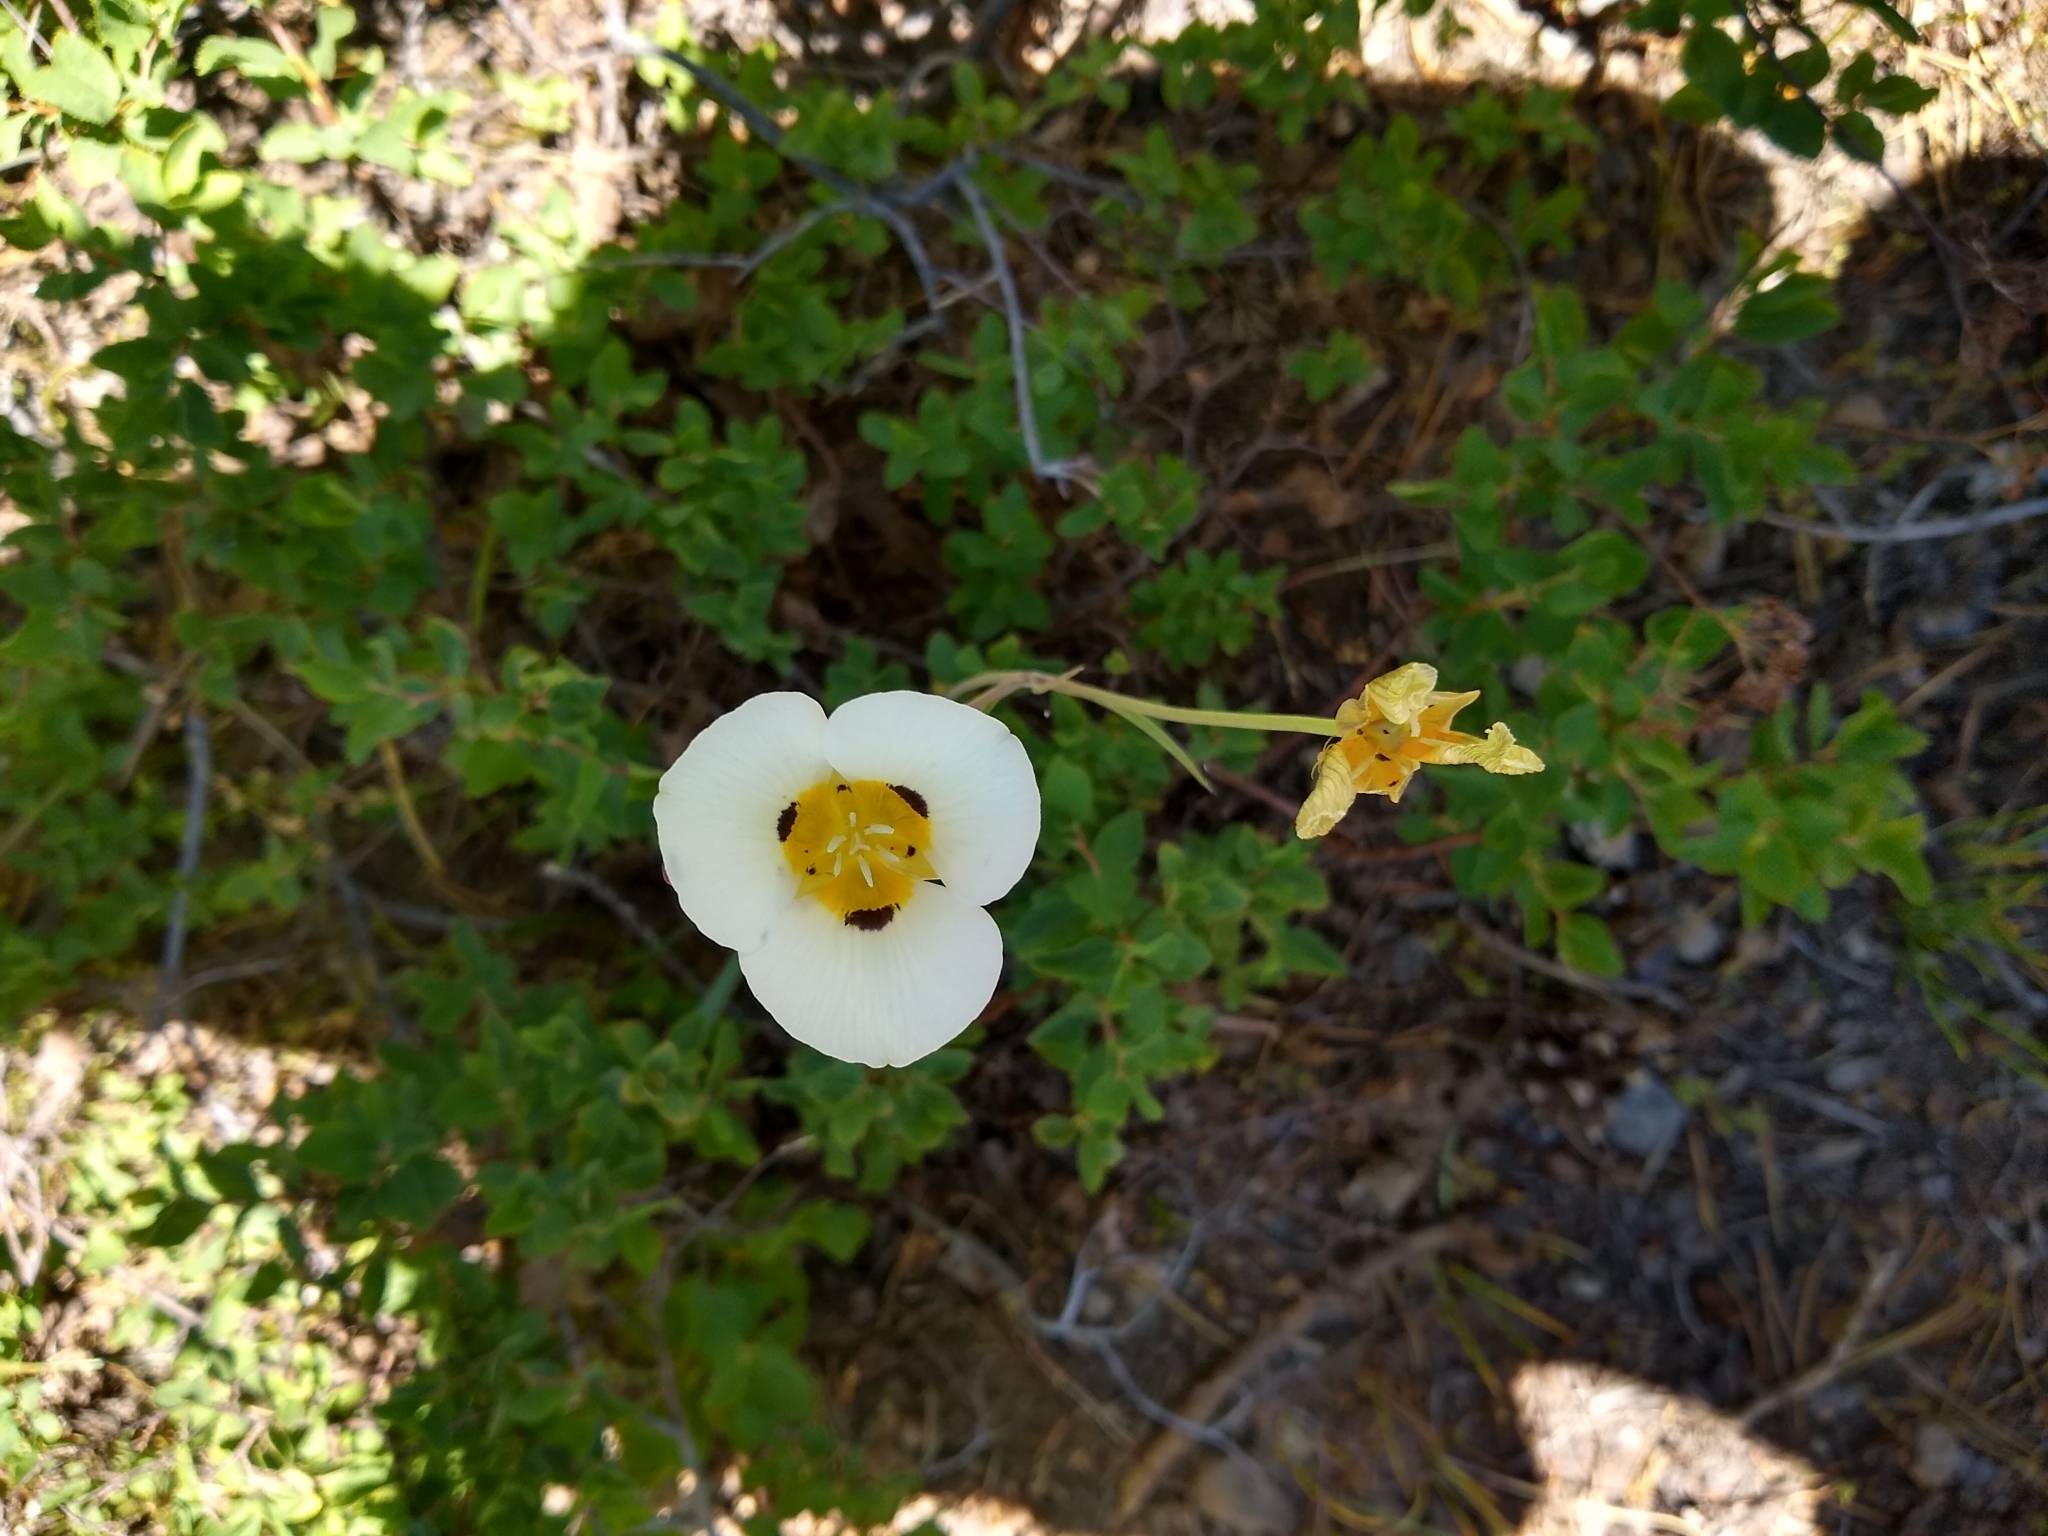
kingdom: Plantae
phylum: Tracheophyta
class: Liliopsida
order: Liliales
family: Liliaceae
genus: Calochortus
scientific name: Calochortus leichtlinii
